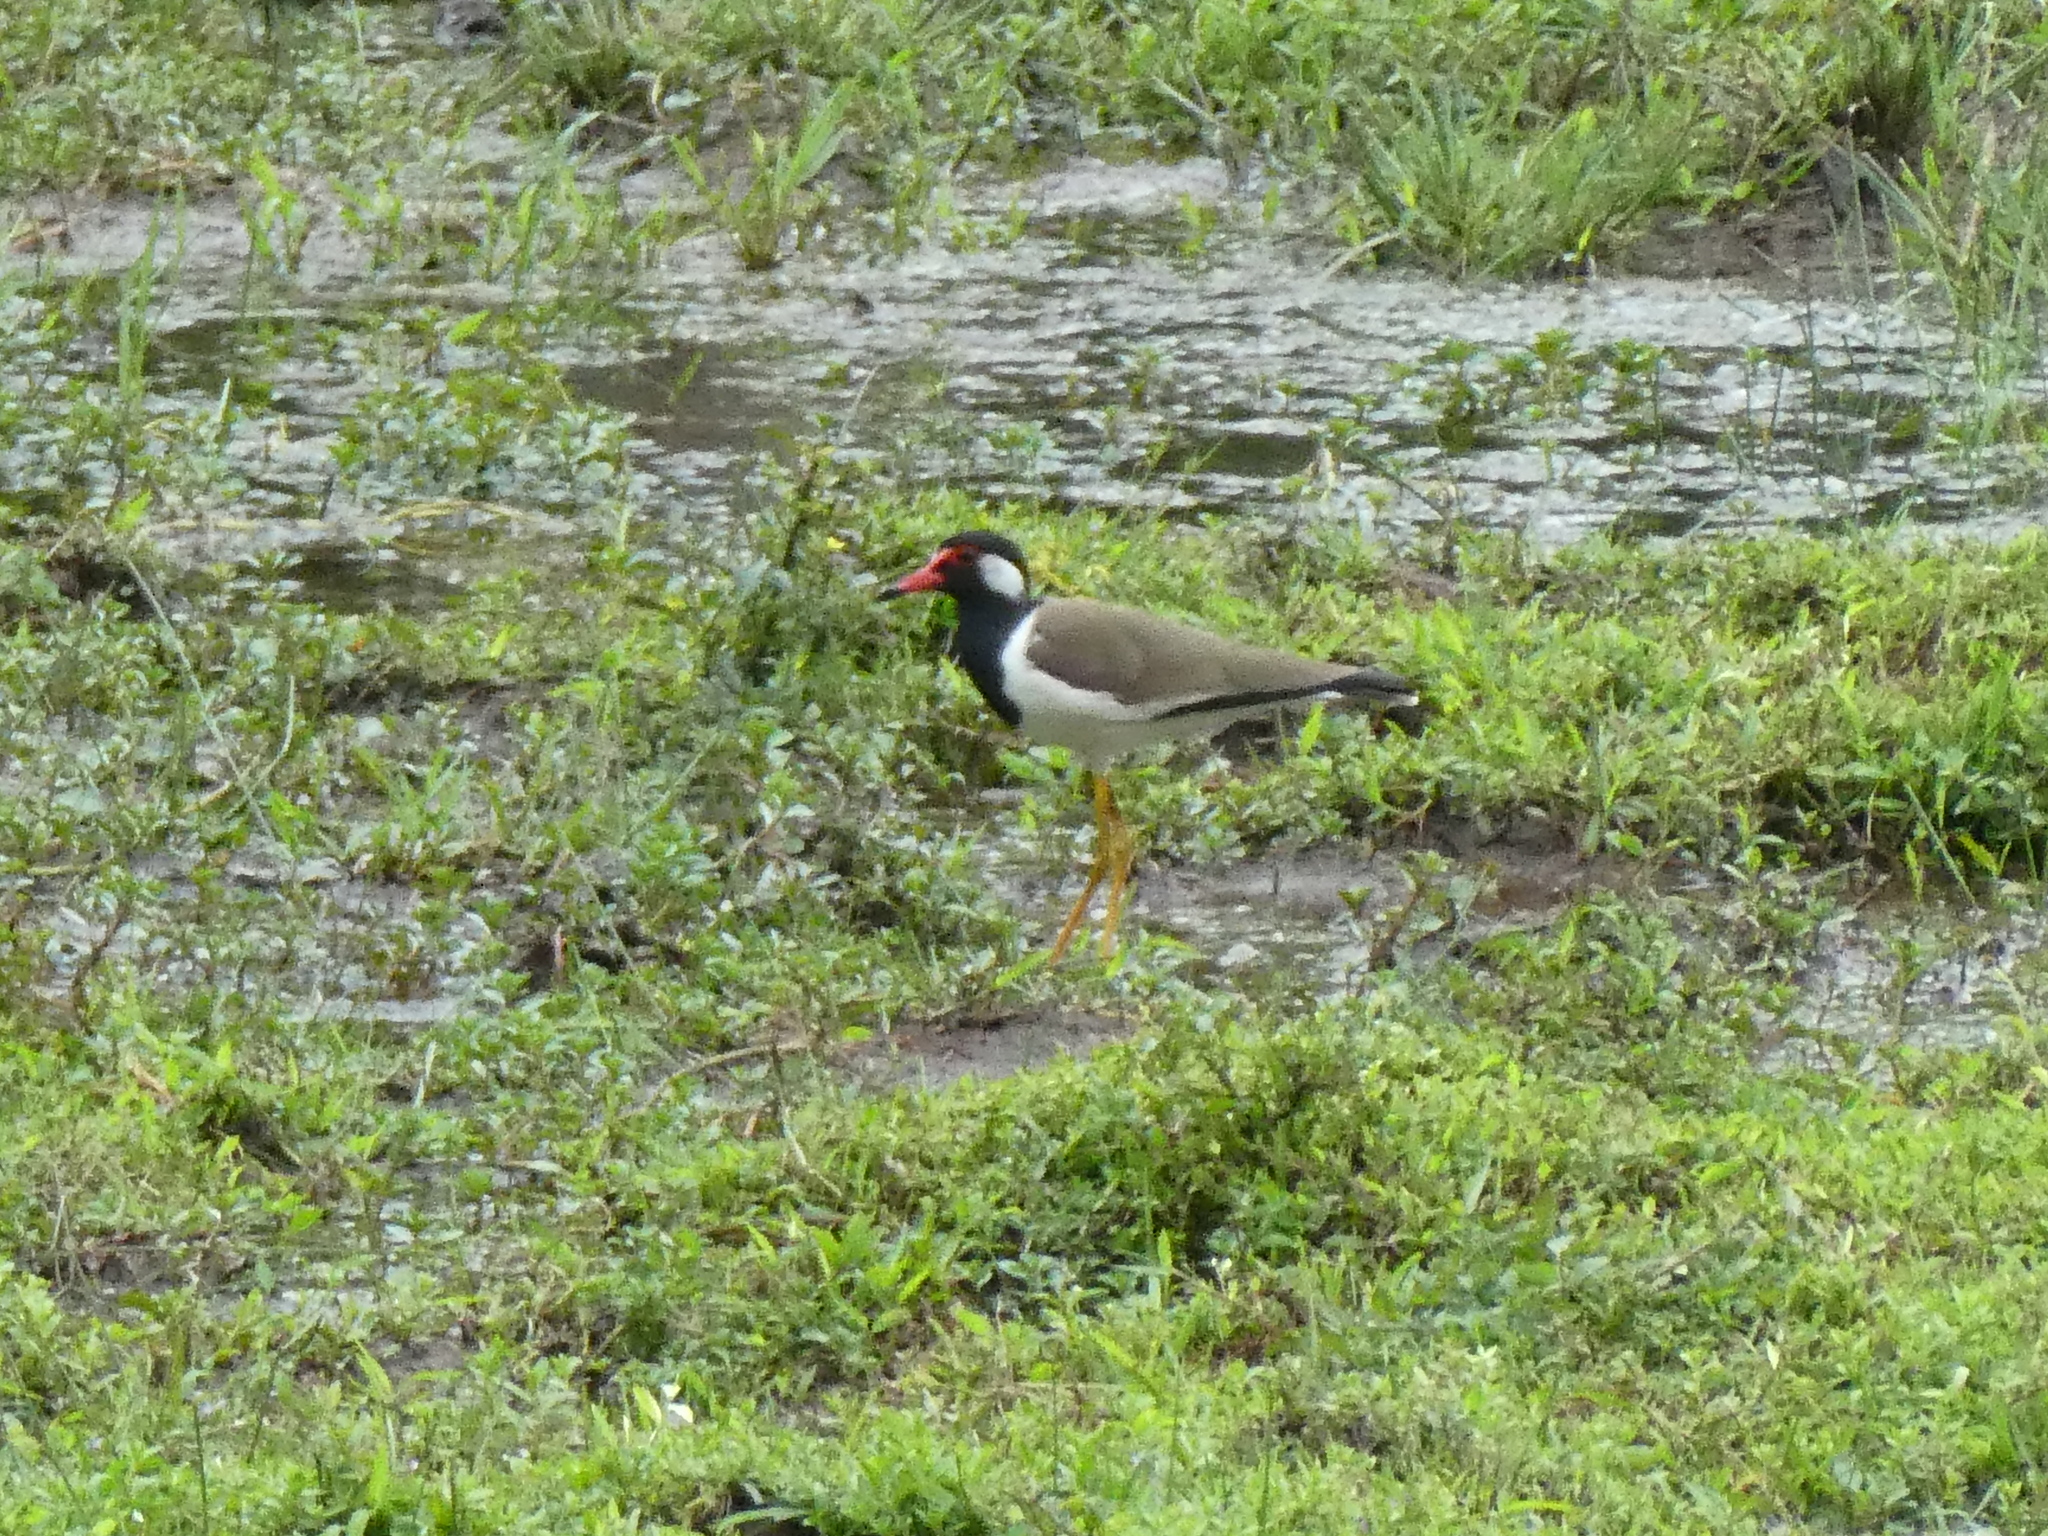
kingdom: Animalia
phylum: Chordata
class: Aves
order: Charadriiformes
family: Charadriidae
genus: Vanellus
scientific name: Vanellus indicus
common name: Red-wattled lapwing
